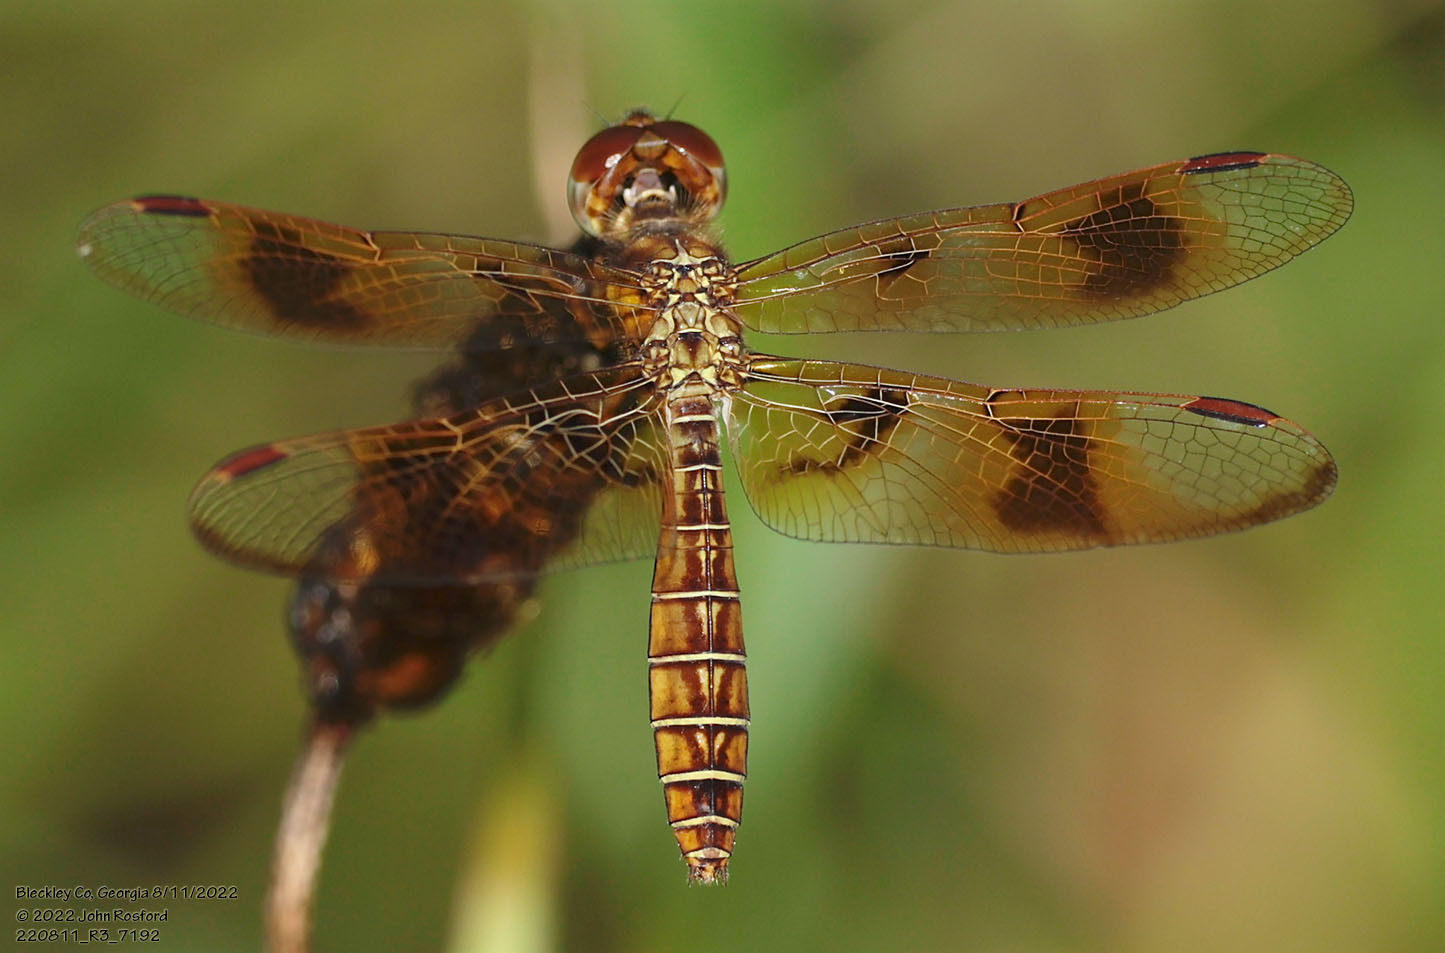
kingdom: Animalia
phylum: Arthropoda
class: Insecta
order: Odonata
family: Libellulidae
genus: Perithemis
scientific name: Perithemis tenera
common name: Eastern amberwing
